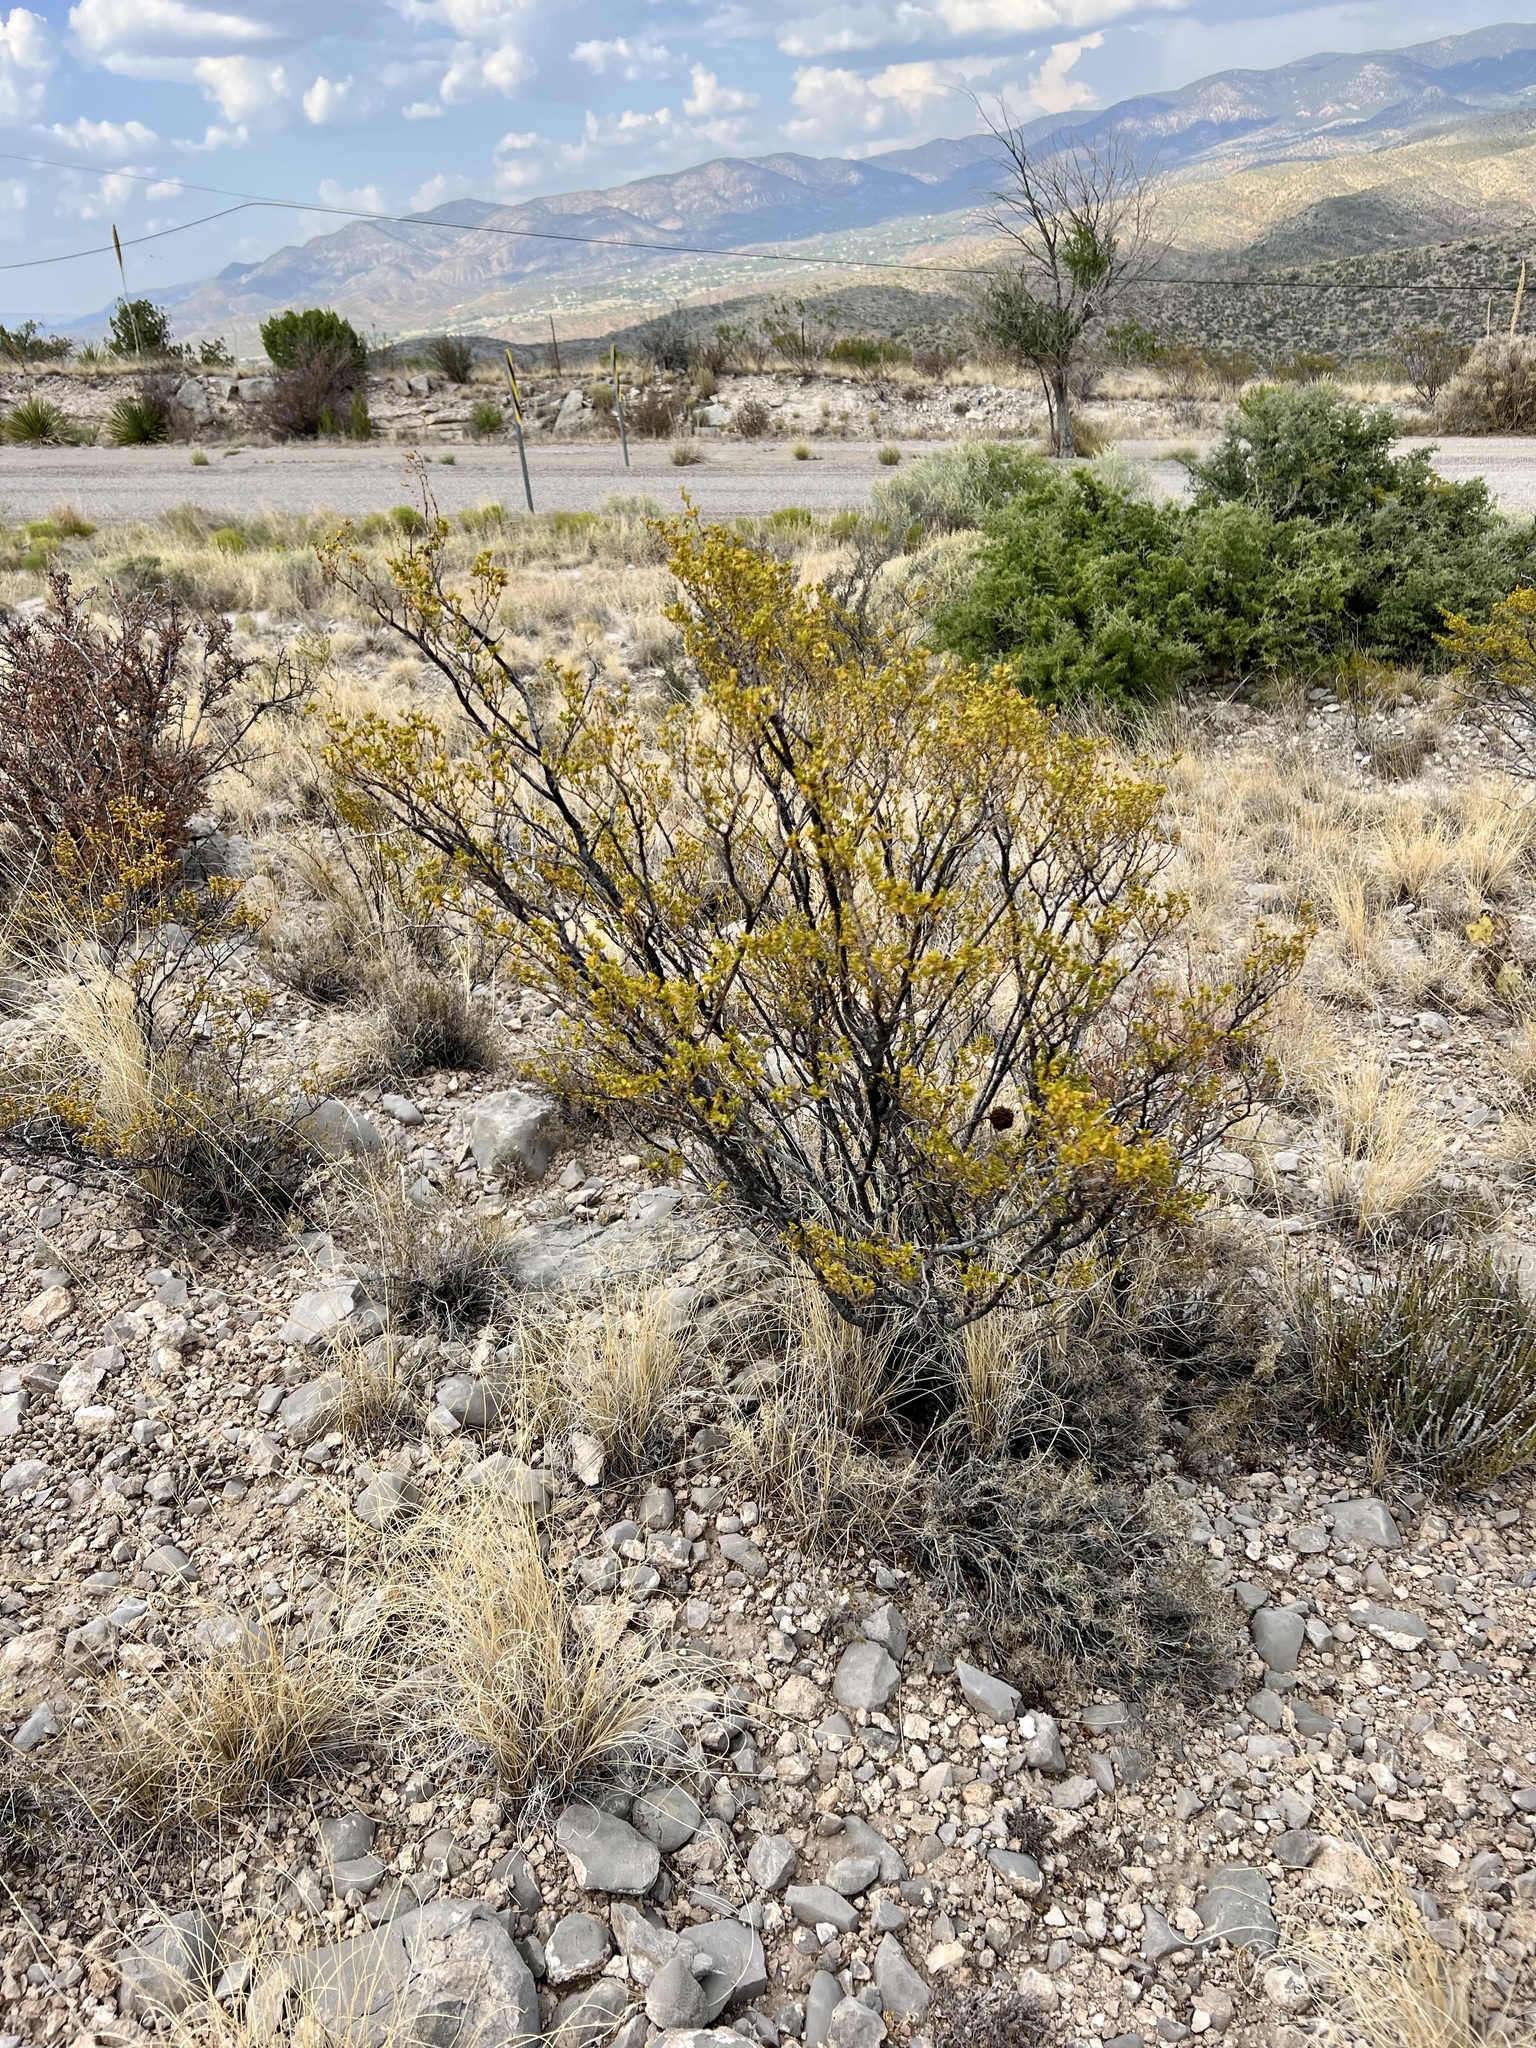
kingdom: Plantae
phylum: Tracheophyta
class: Magnoliopsida
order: Zygophyllales
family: Zygophyllaceae
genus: Larrea
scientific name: Larrea tridentata
